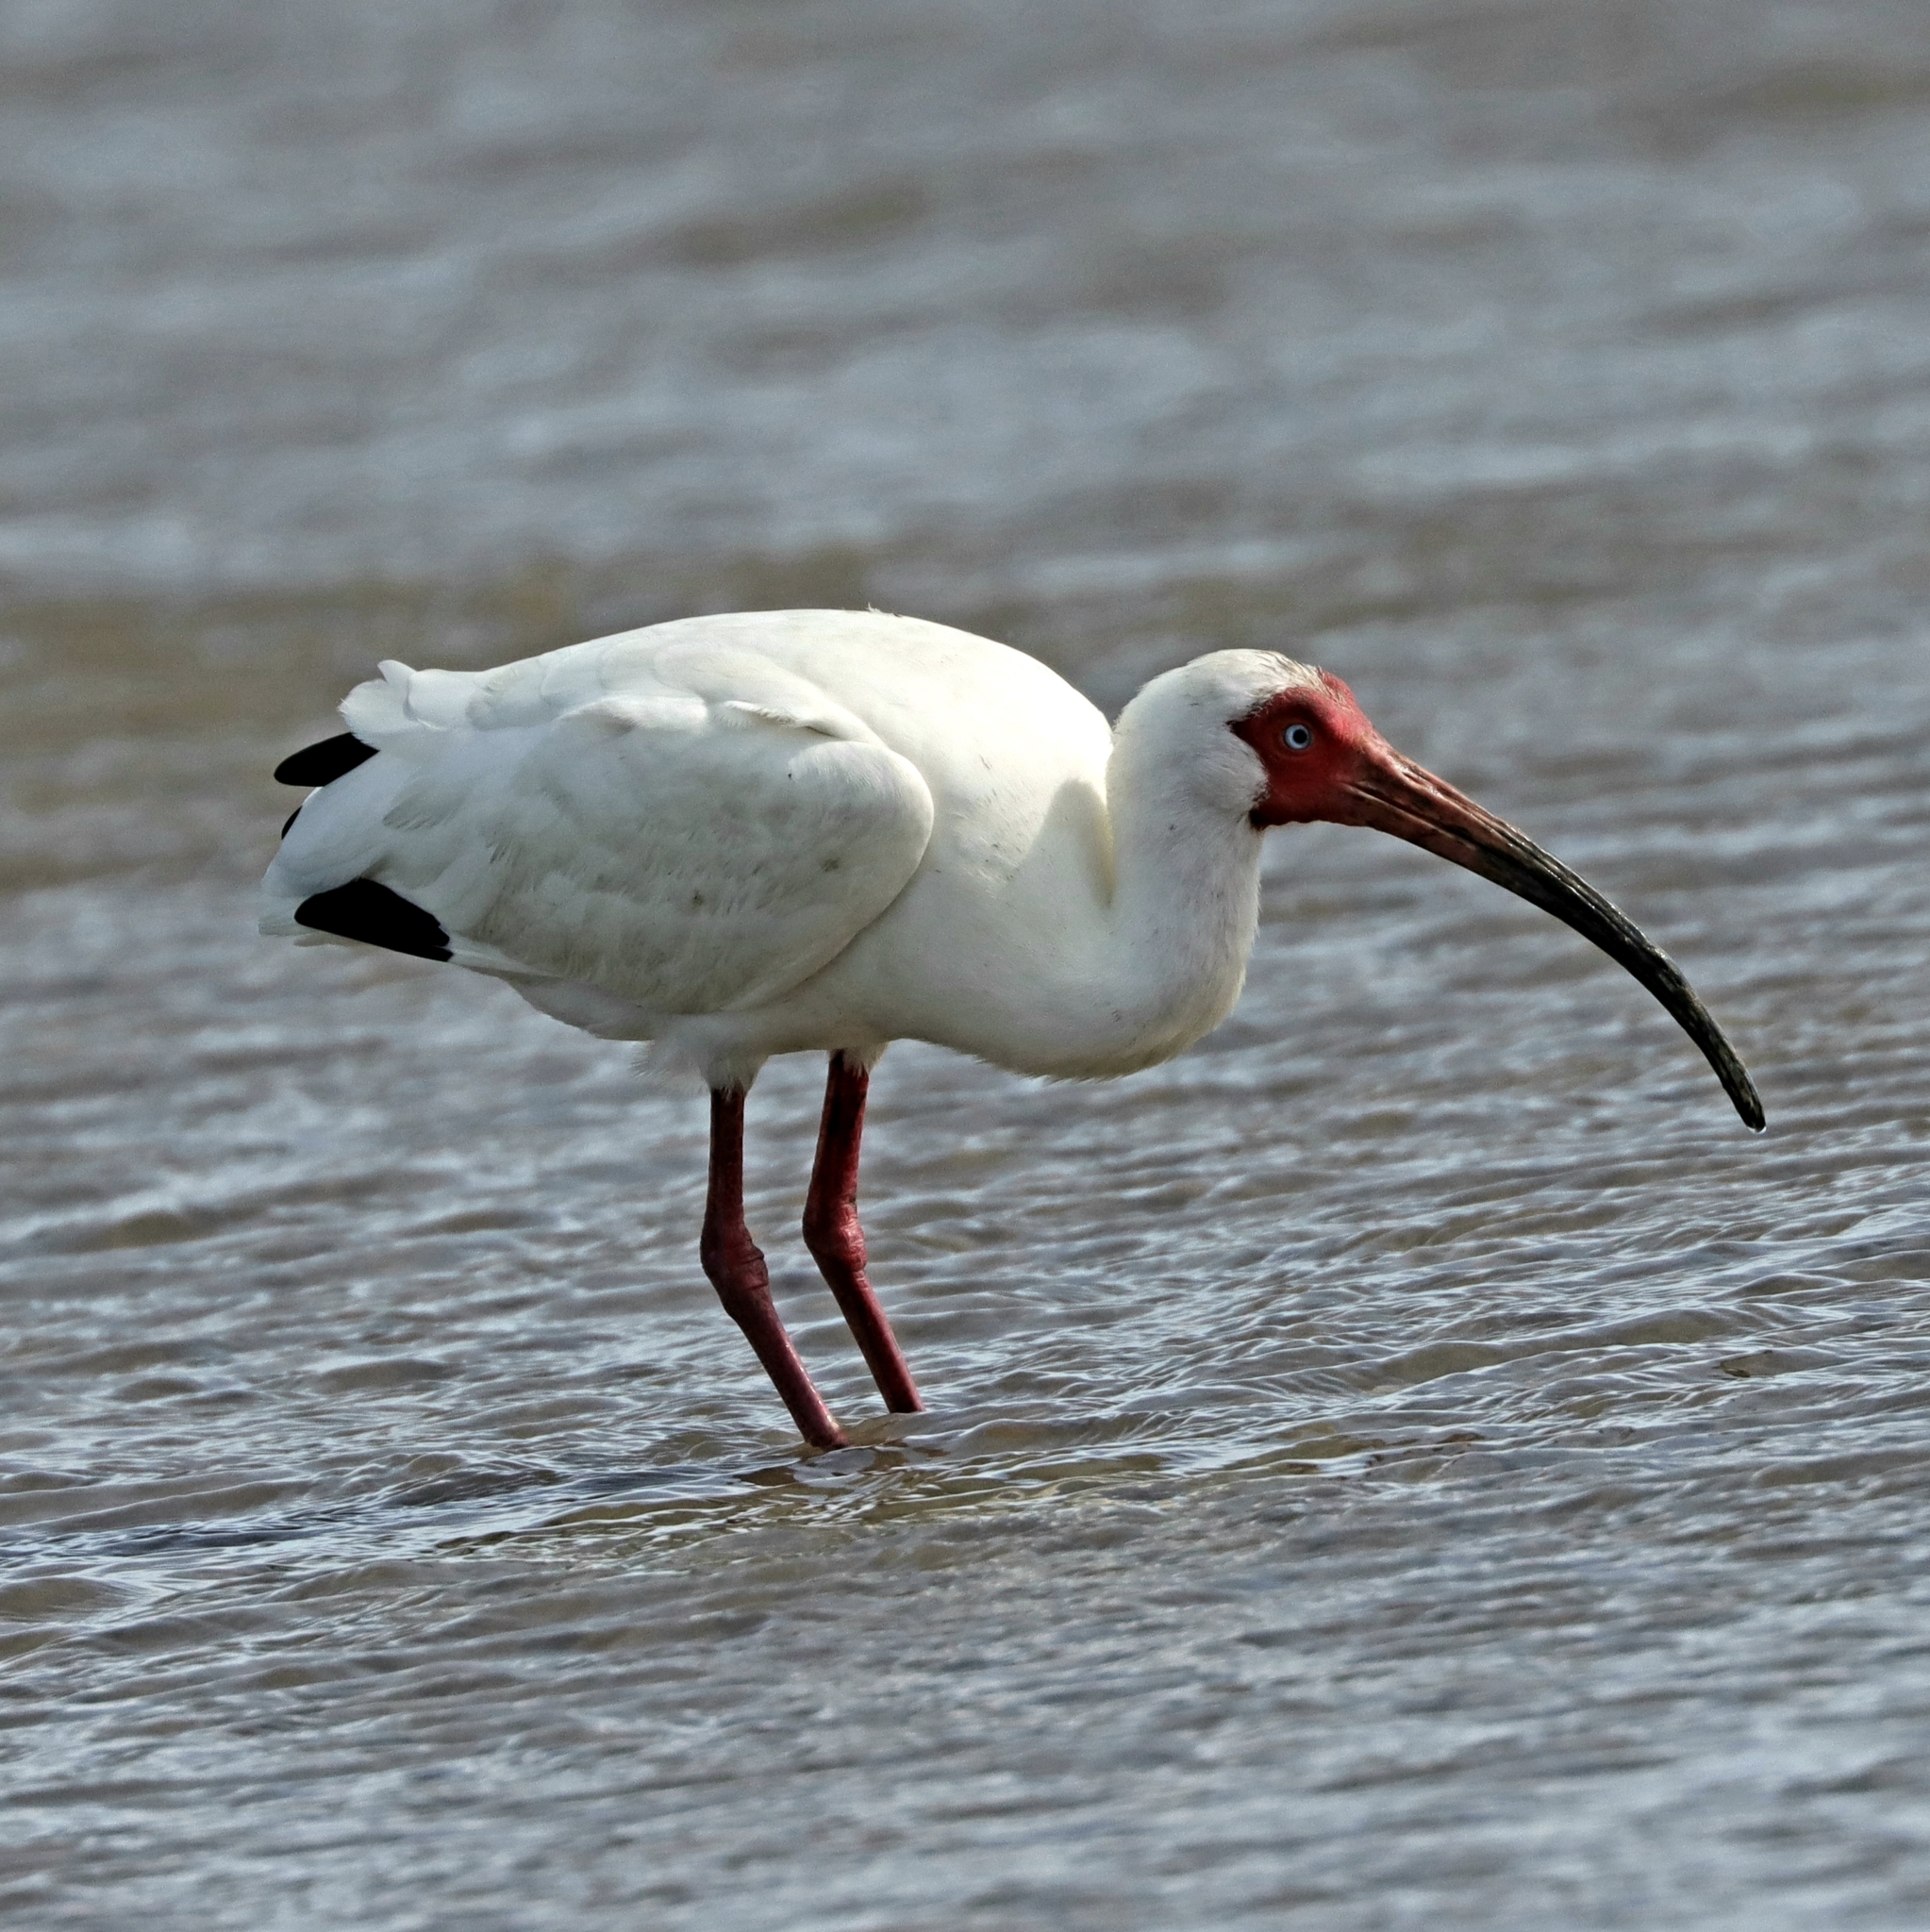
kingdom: Animalia
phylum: Chordata
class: Aves
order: Pelecaniformes
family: Threskiornithidae
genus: Eudocimus
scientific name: Eudocimus albus
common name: White ibis
